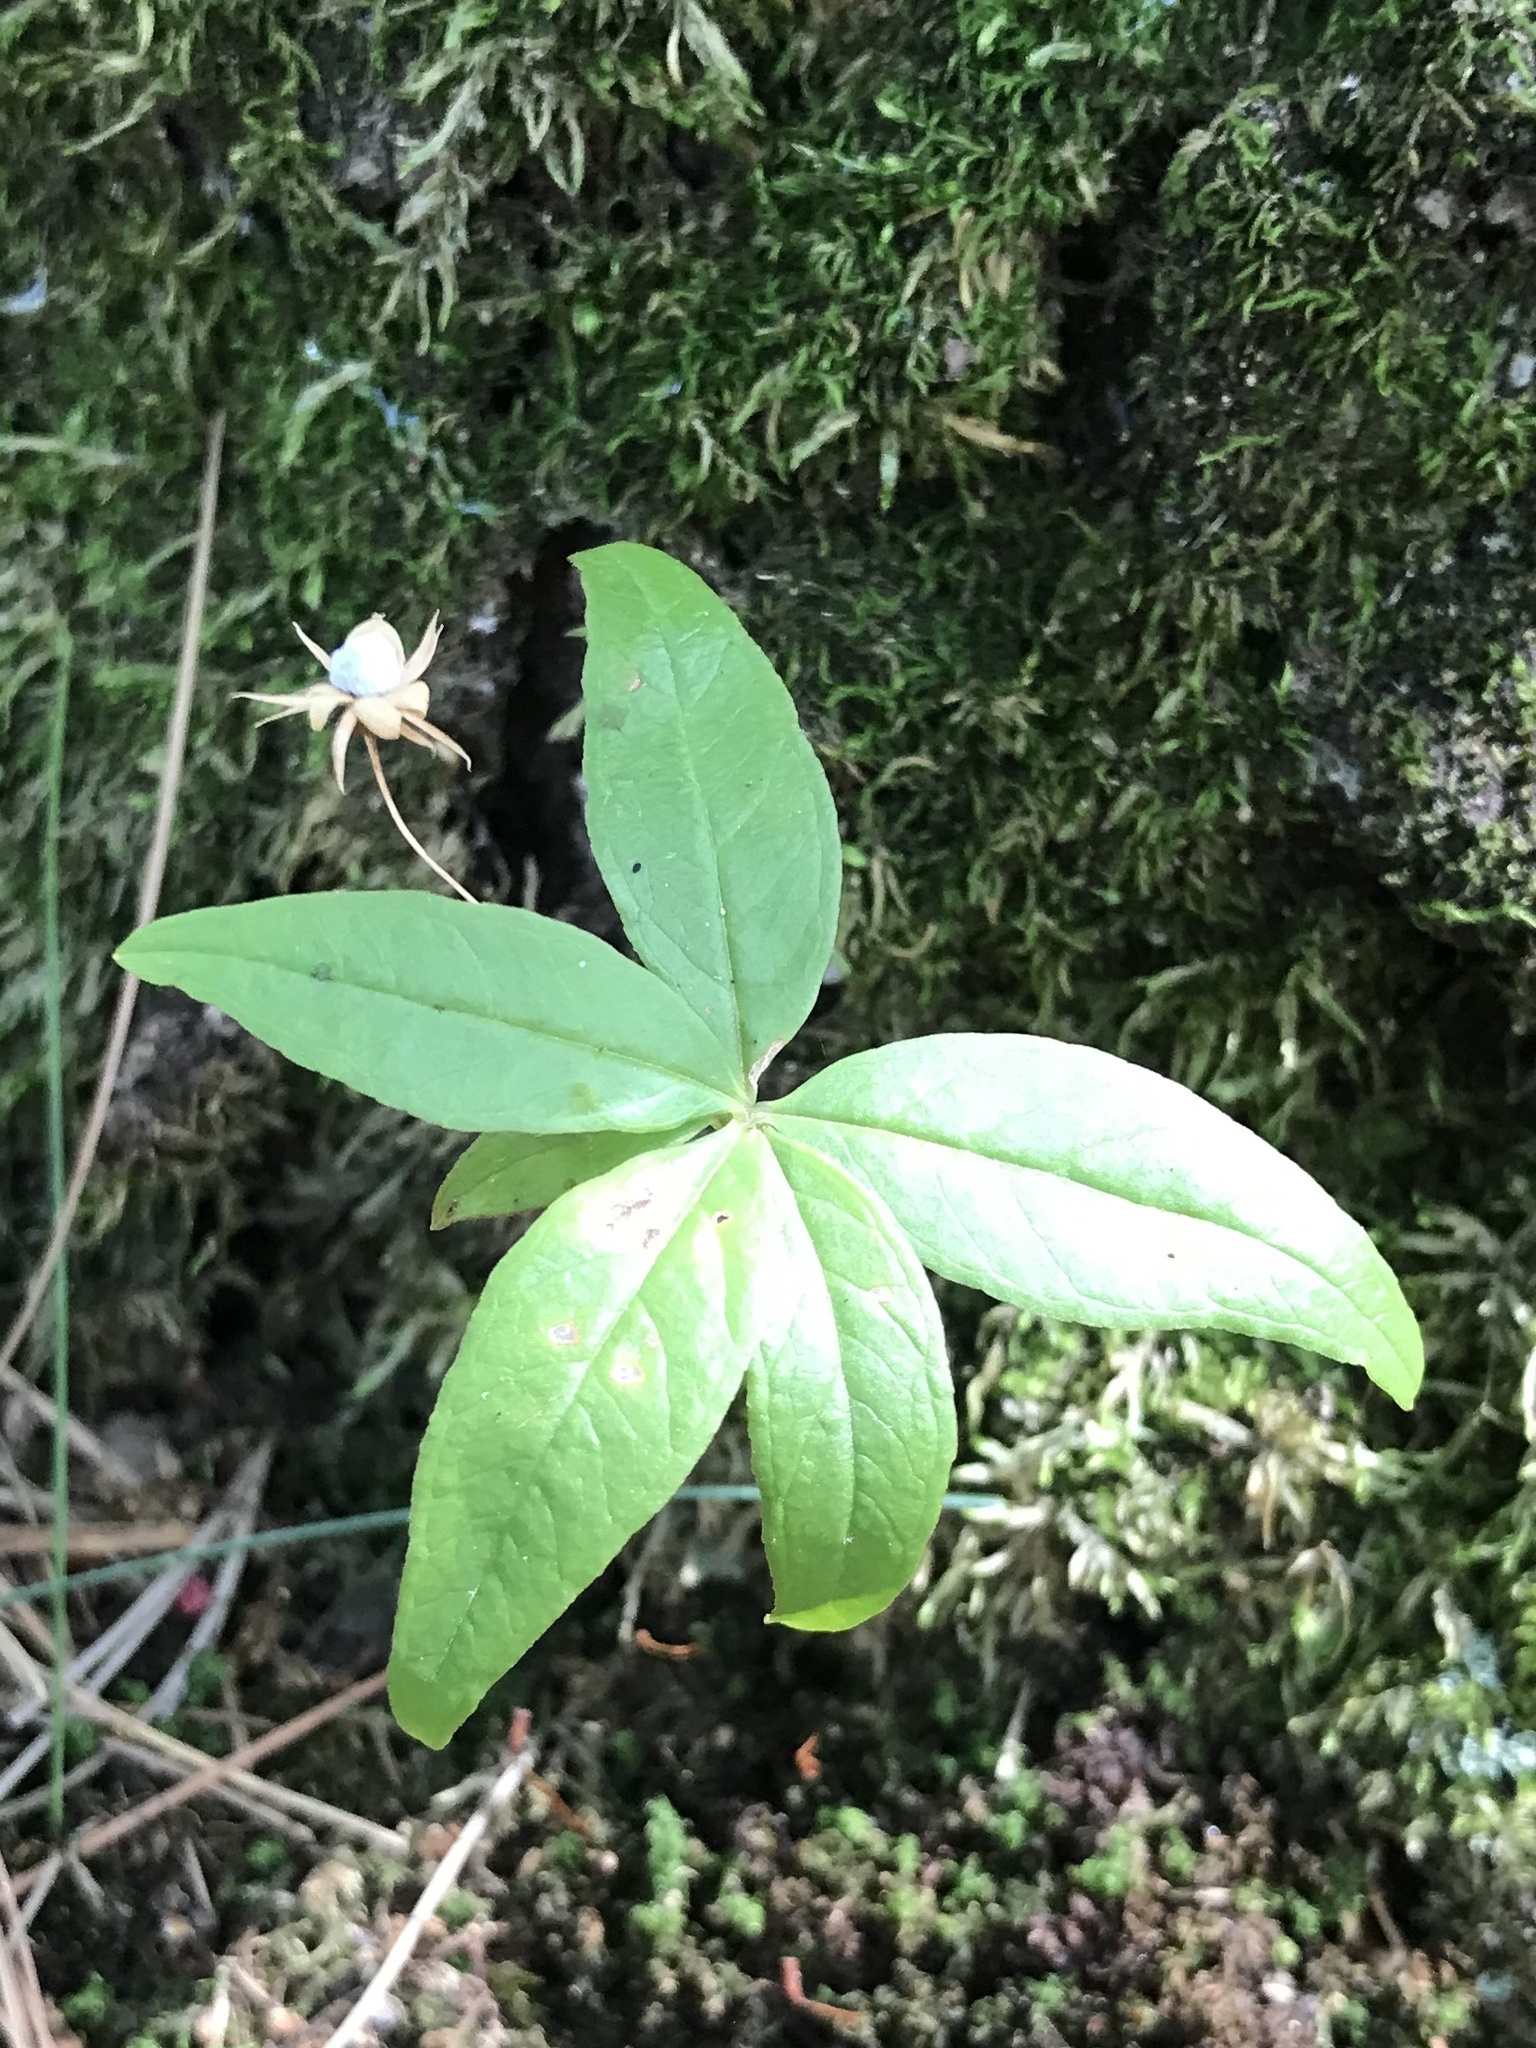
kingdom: Plantae
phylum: Tracheophyta
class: Magnoliopsida
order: Ericales
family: Primulaceae
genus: Lysimachia
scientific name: Lysimachia borealis
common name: American starflower
